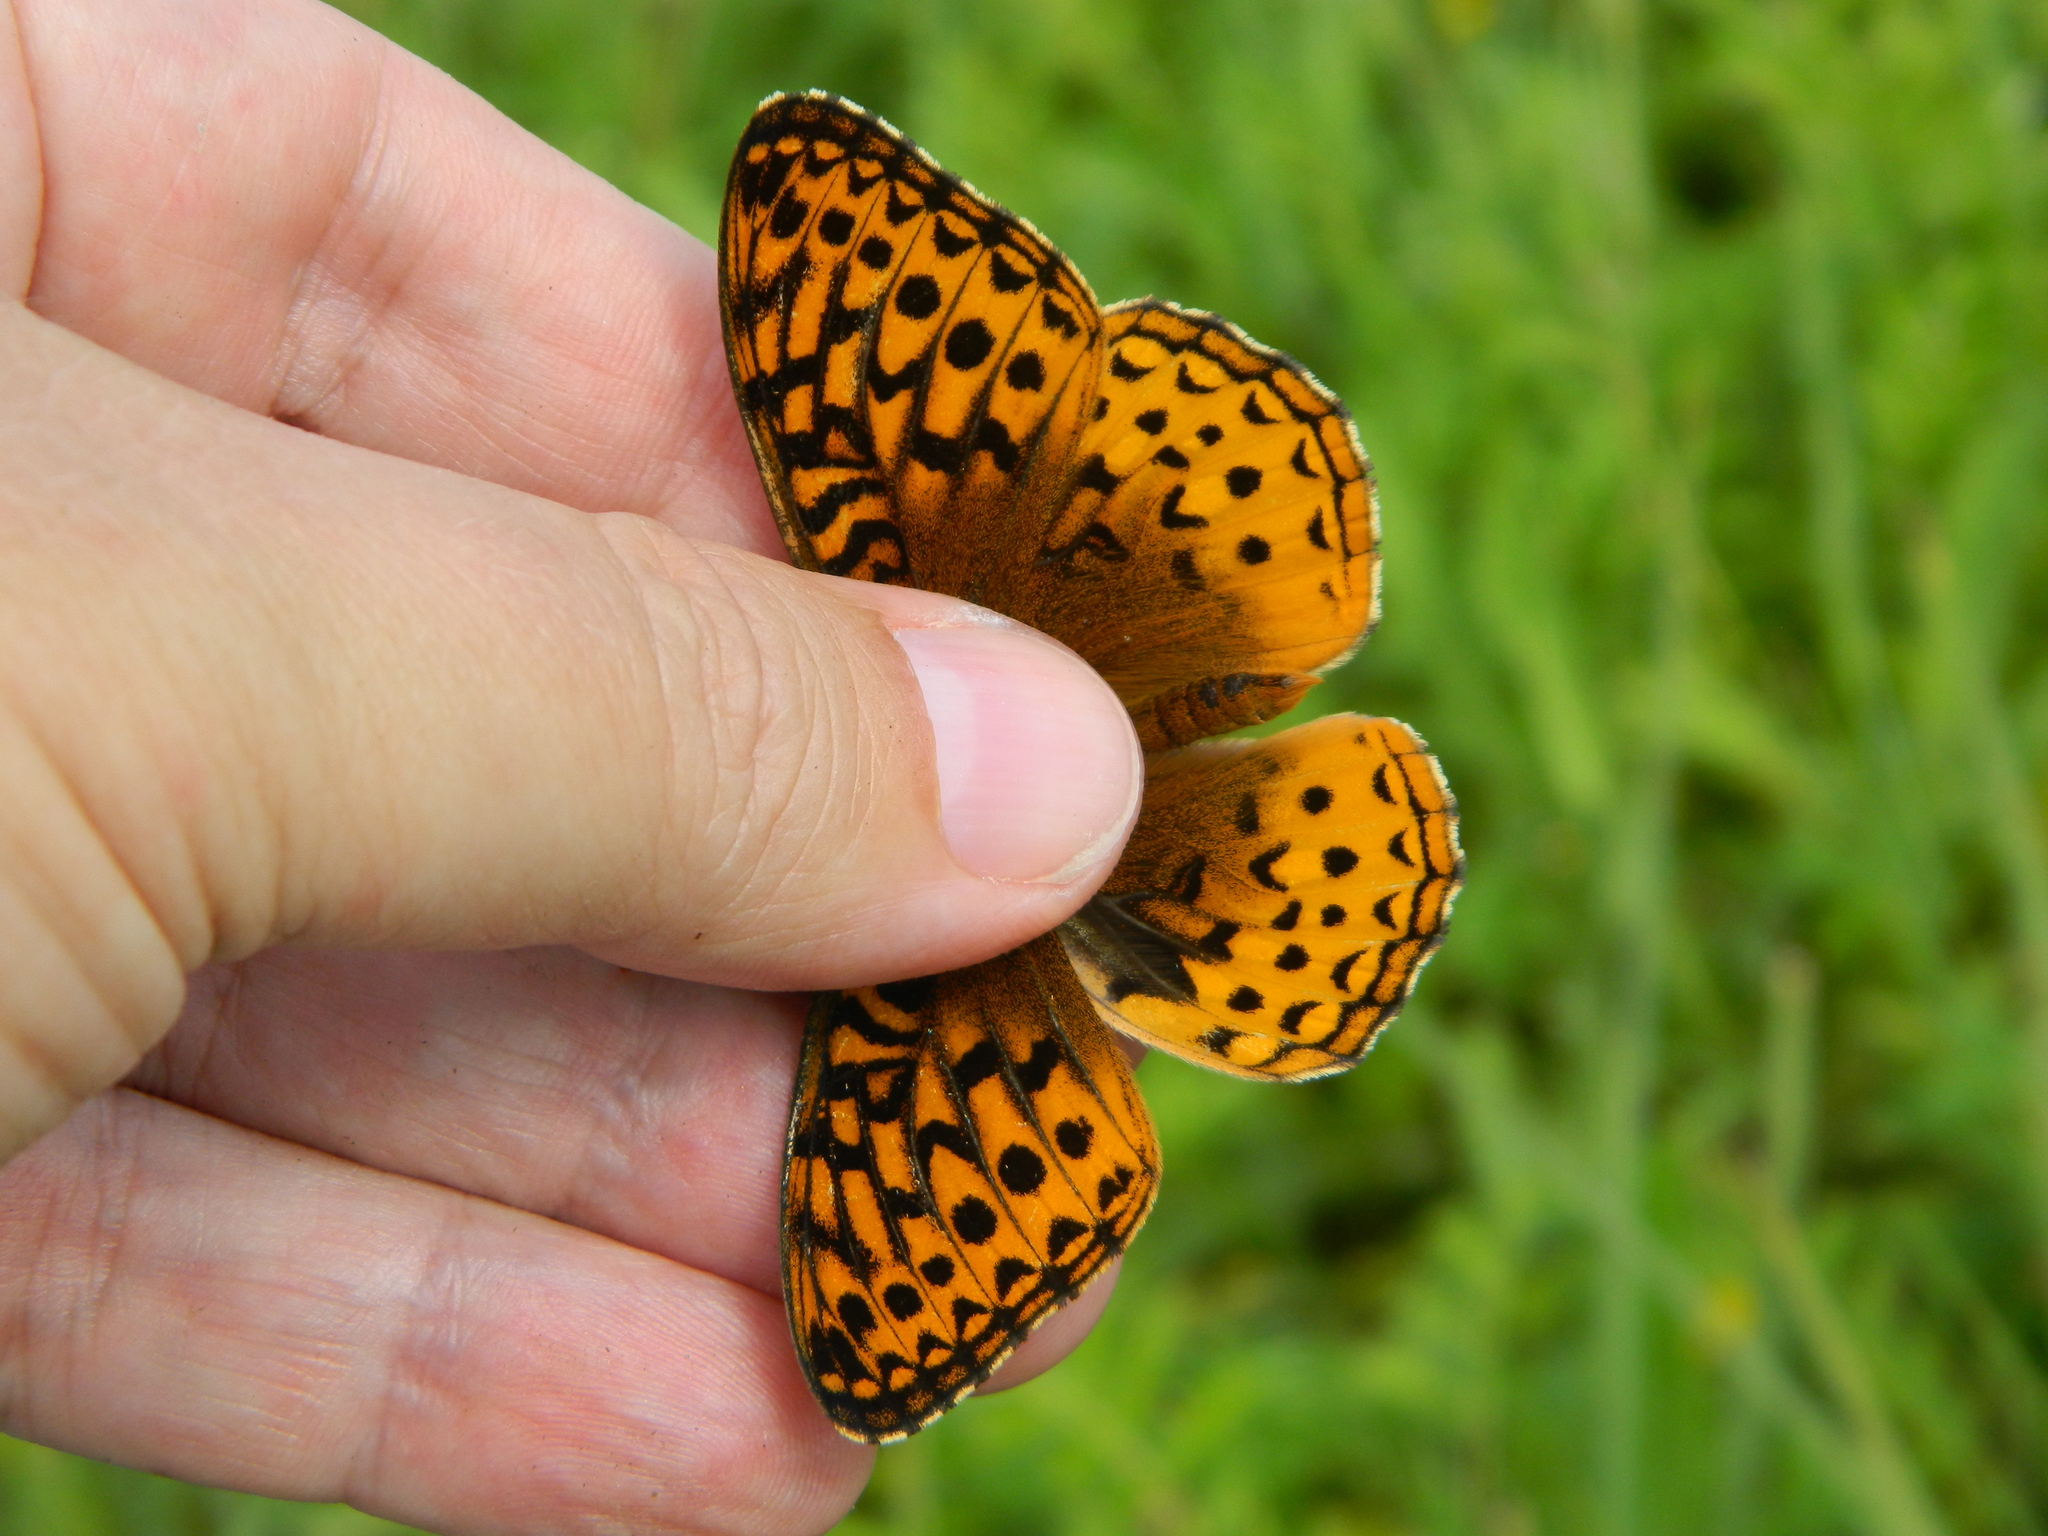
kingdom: Animalia
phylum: Arthropoda
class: Insecta
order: Lepidoptera
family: Nymphalidae
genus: Speyeria
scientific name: Speyeria cybele
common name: Great spangled fritillary
